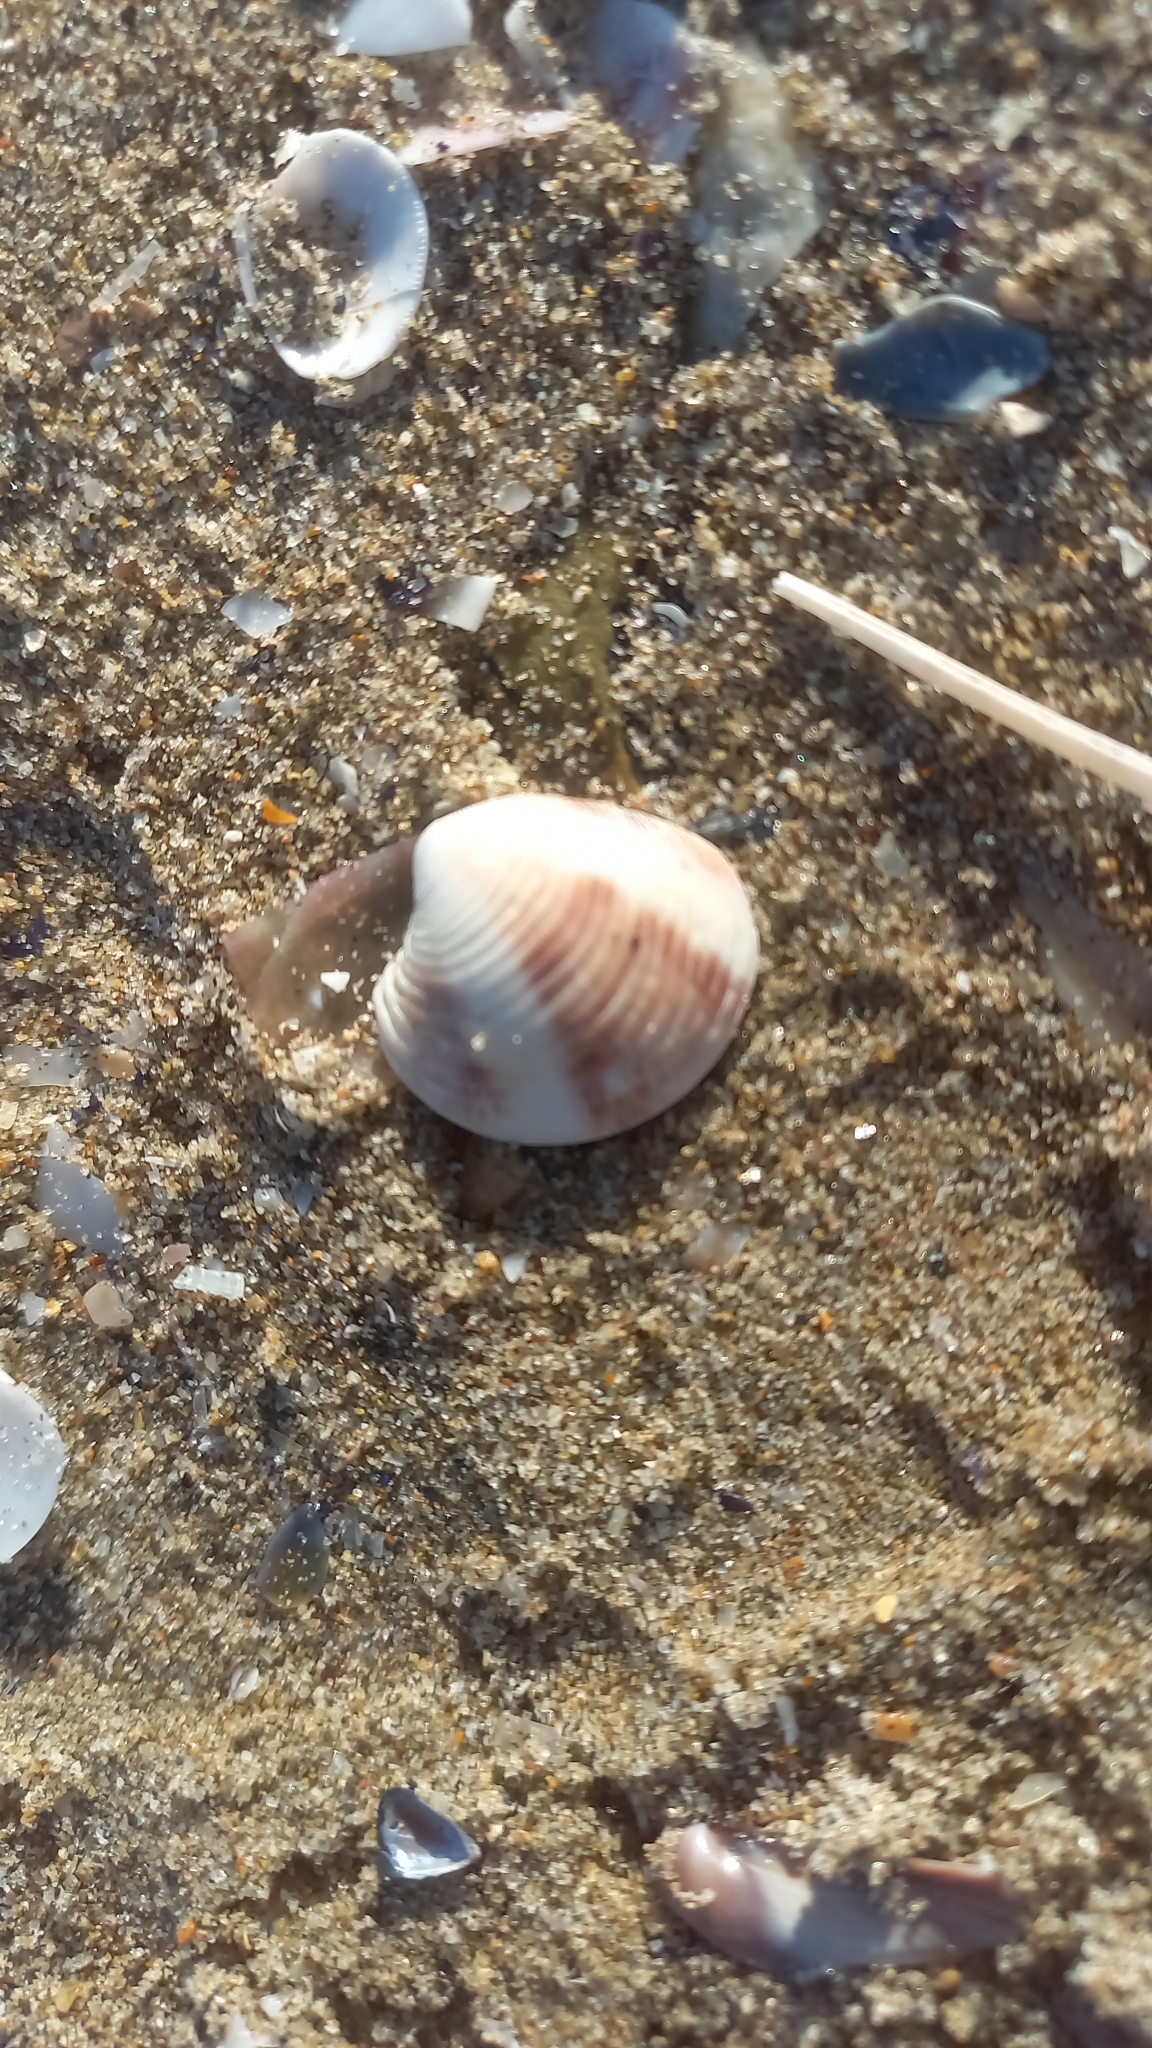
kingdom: Animalia
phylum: Mollusca
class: Bivalvia
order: Venerida
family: Veneridae
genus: Chamelea
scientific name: Chamelea gallina
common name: Chicken venus
